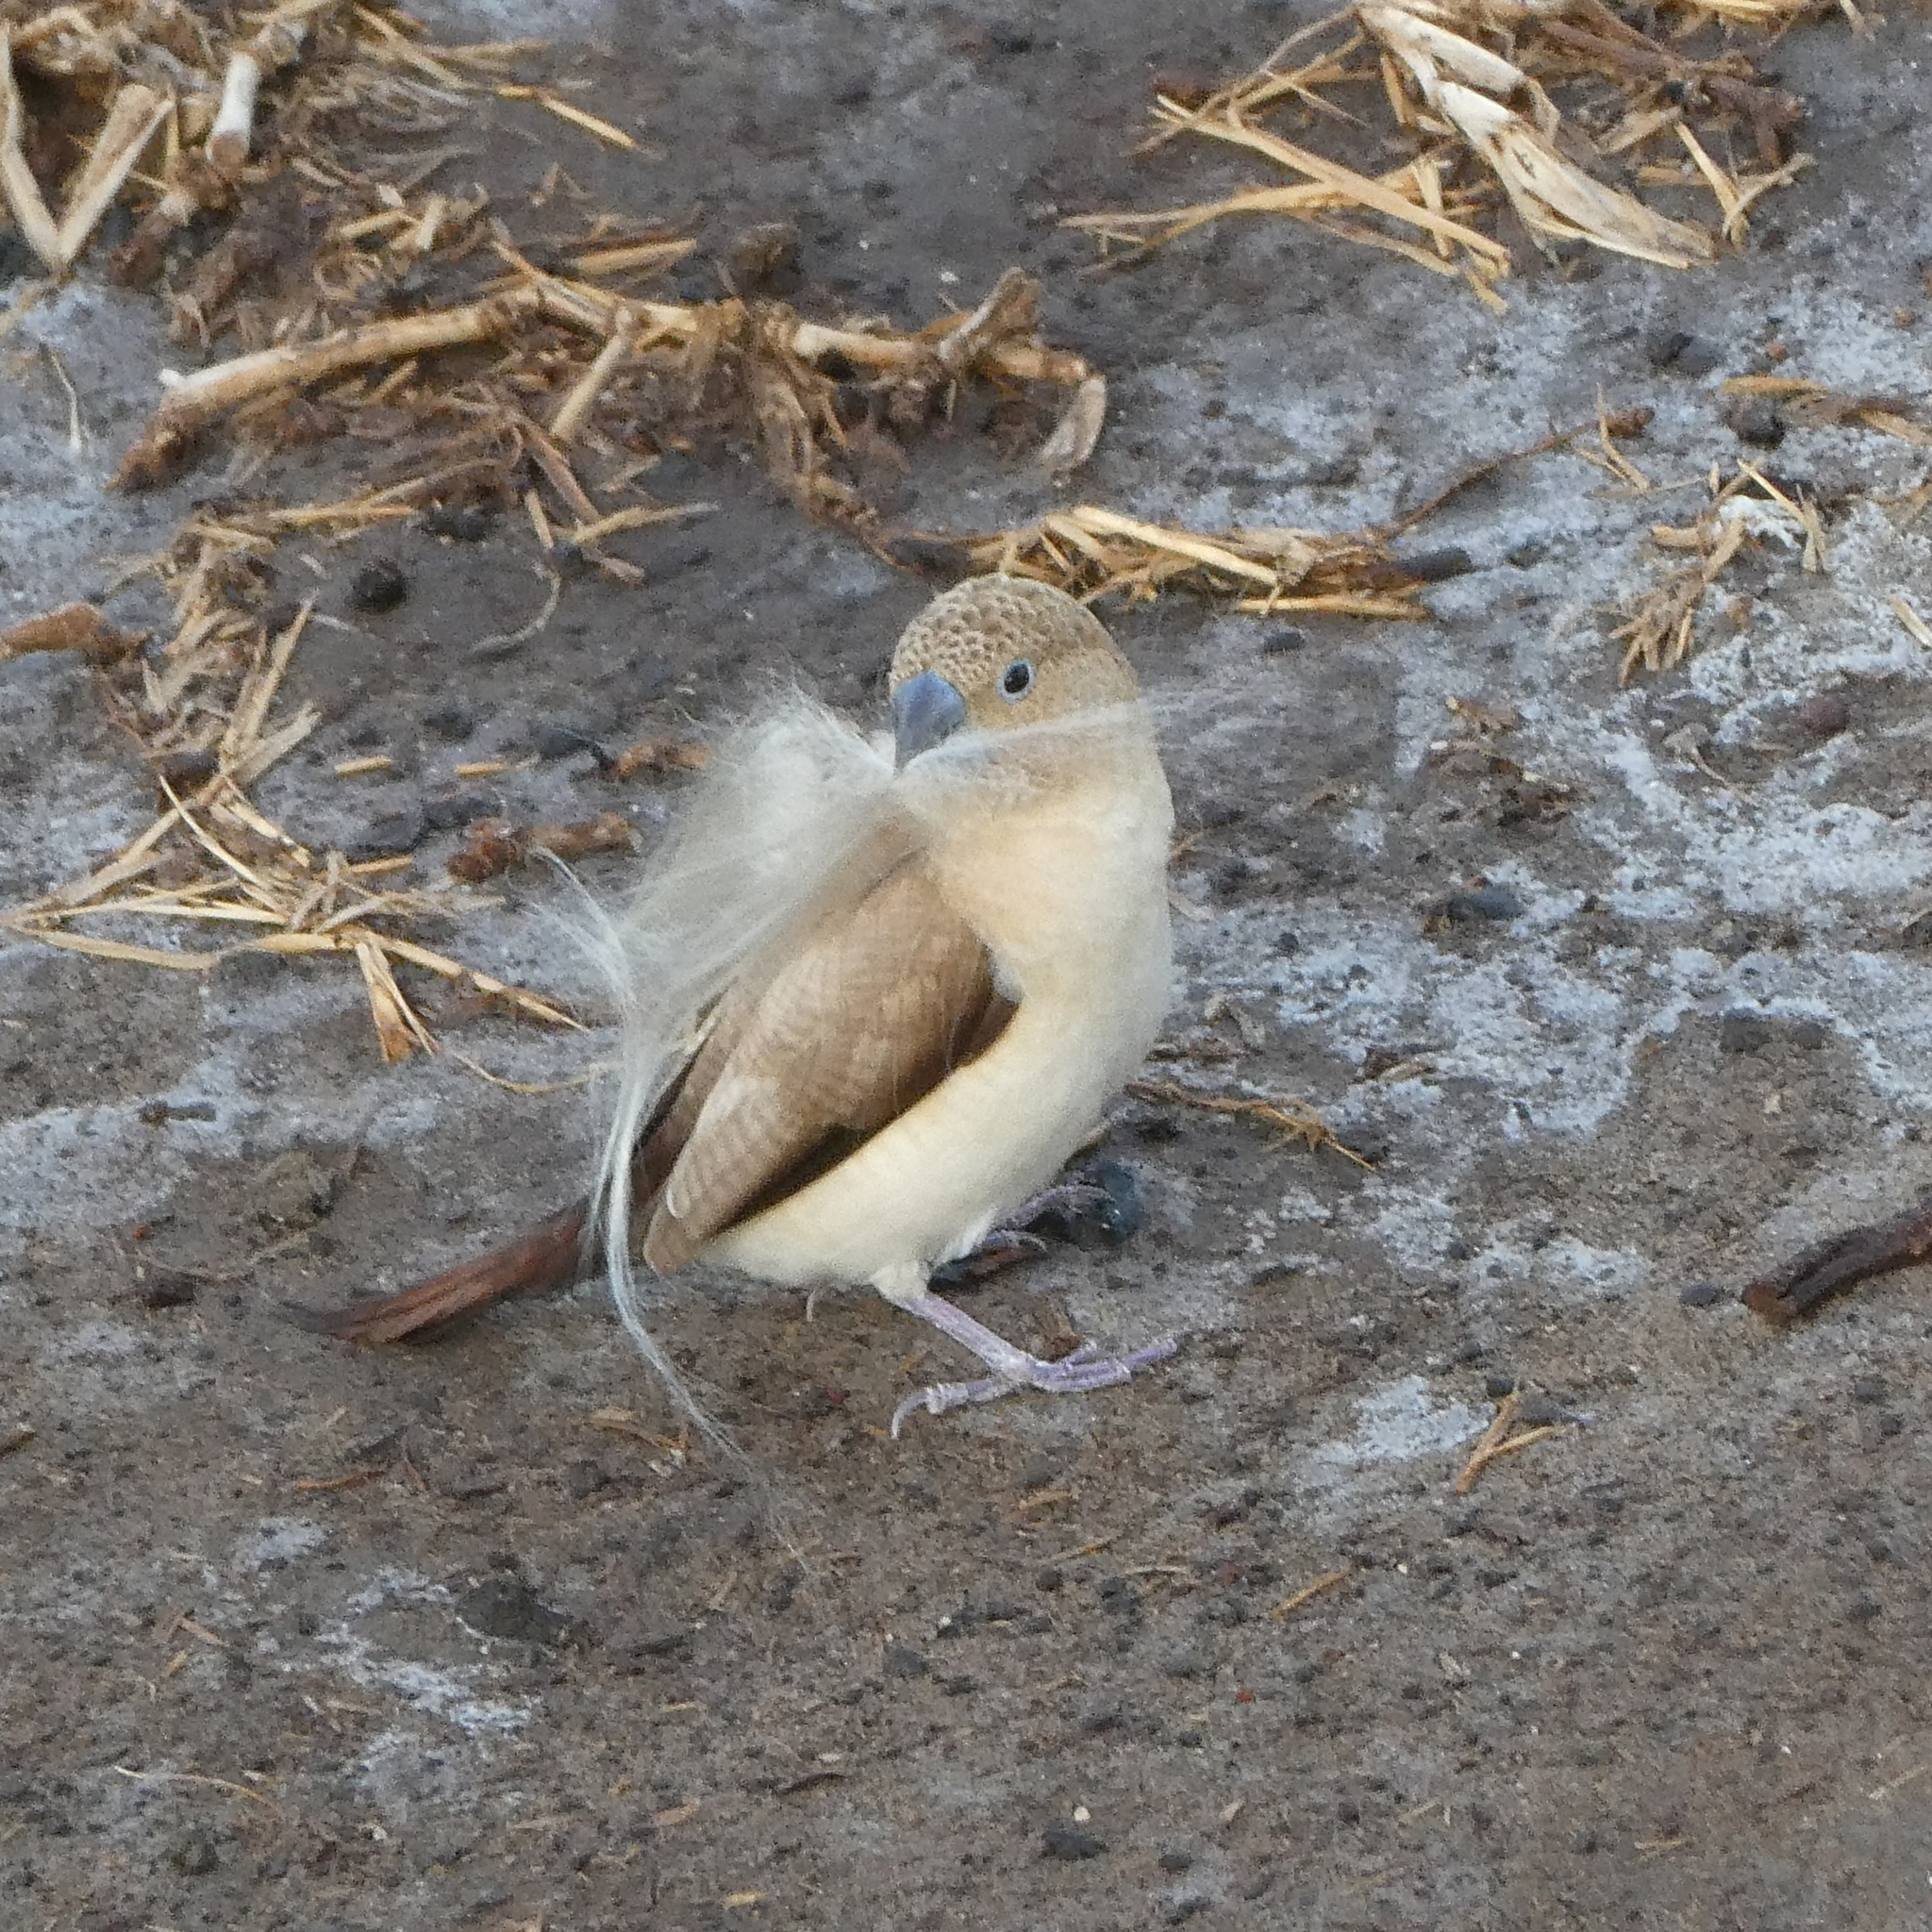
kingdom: Animalia
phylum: Chordata
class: Aves
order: Passeriformes
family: Estrildidae
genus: Euodice
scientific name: Euodice cantans
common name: African silverbill
